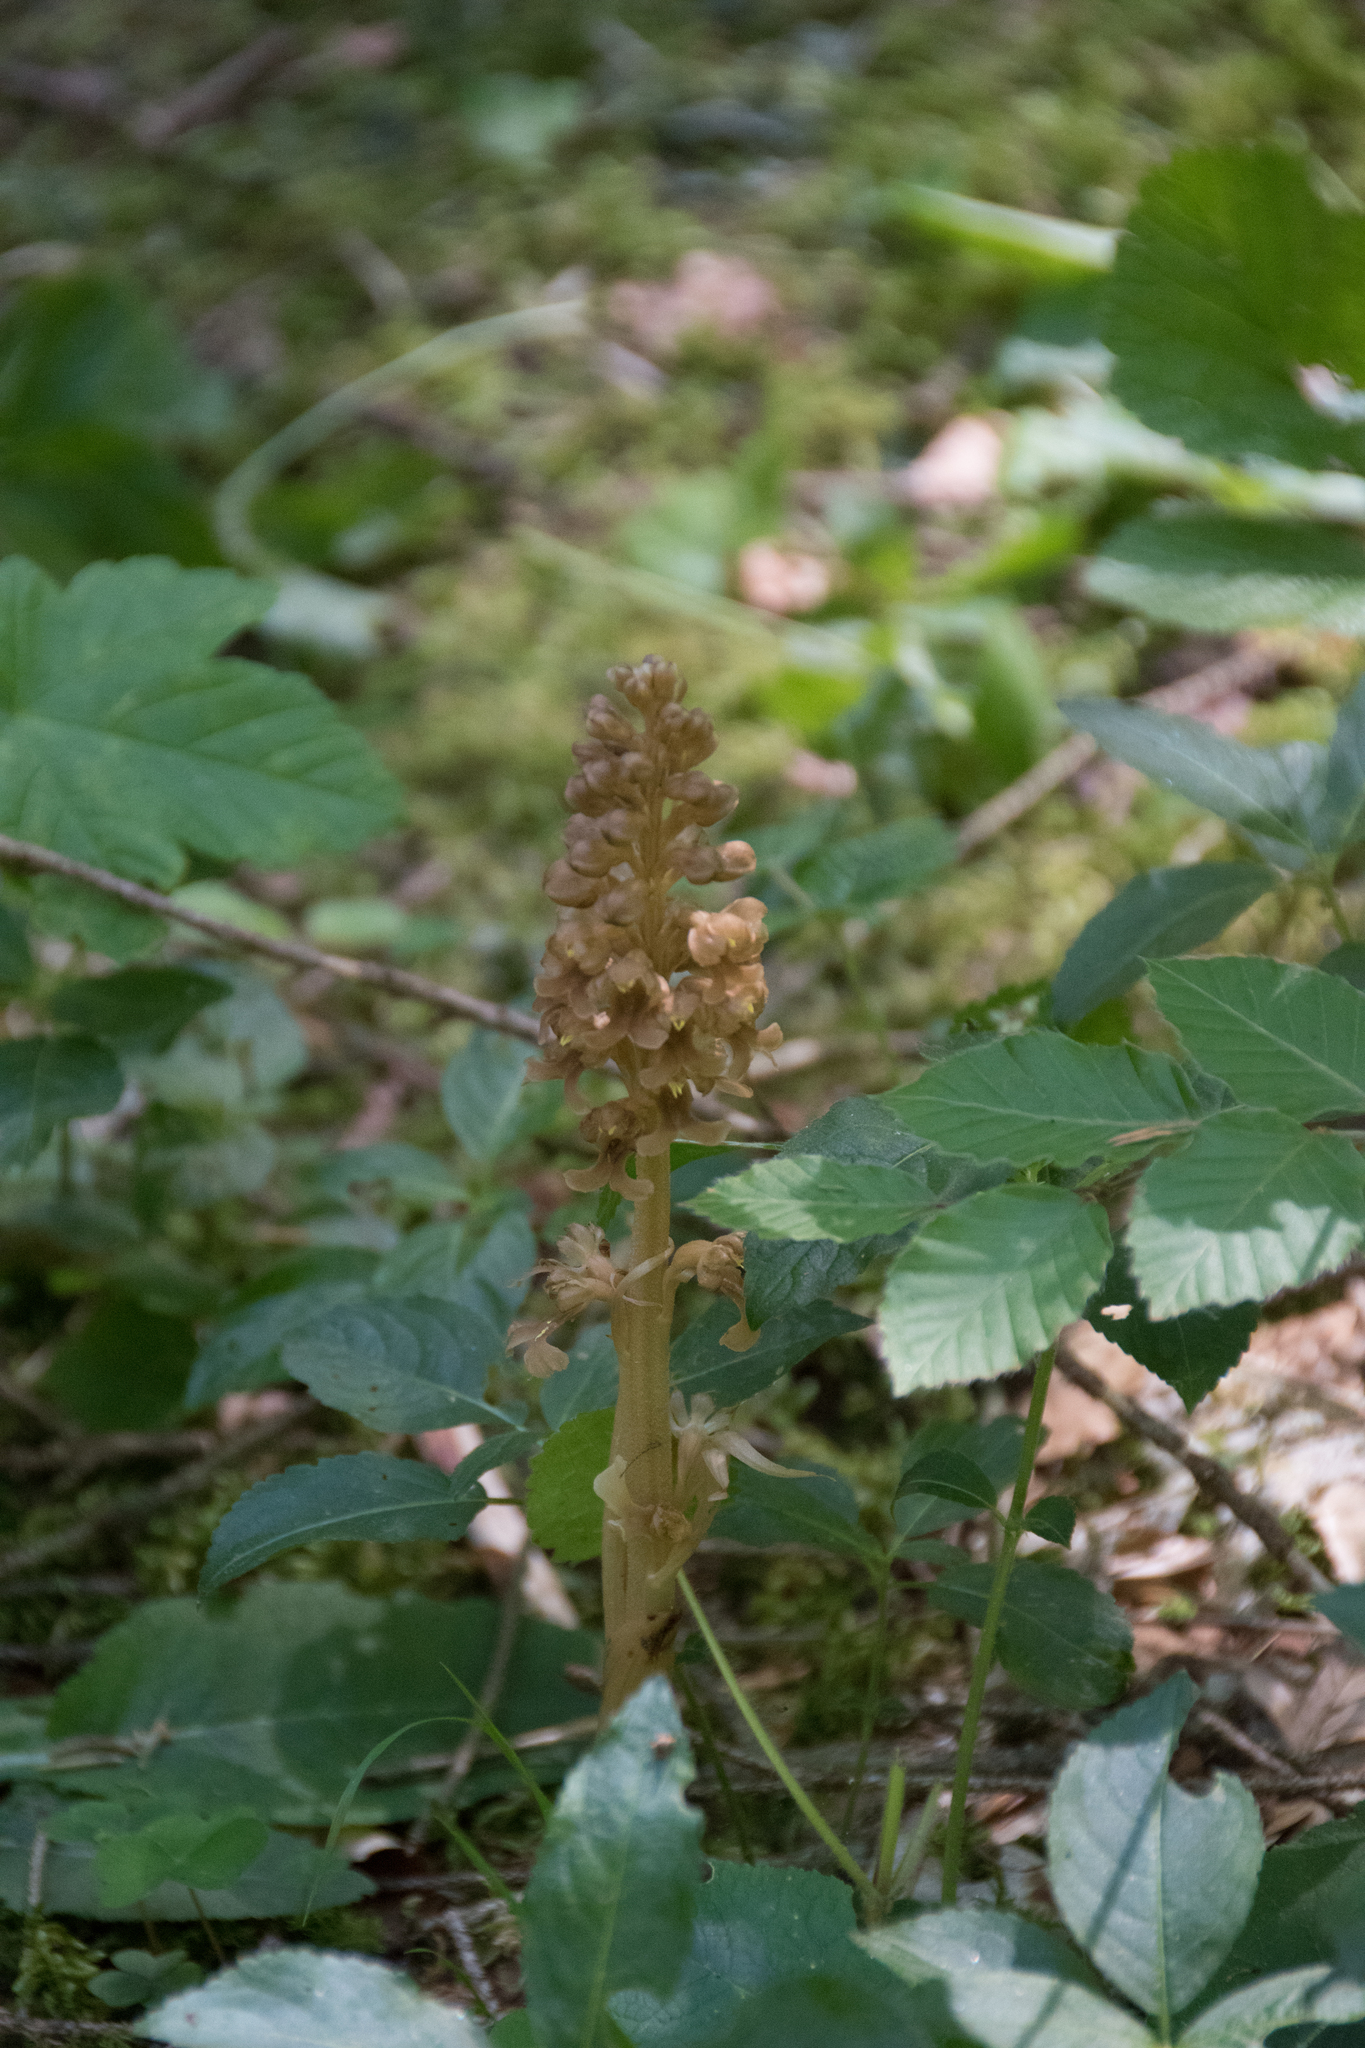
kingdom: Plantae
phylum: Tracheophyta
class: Liliopsida
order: Asparagales
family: Orchidaceae
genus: Neottia
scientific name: Neottia nidus-avis
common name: Bird's-nest orchid
